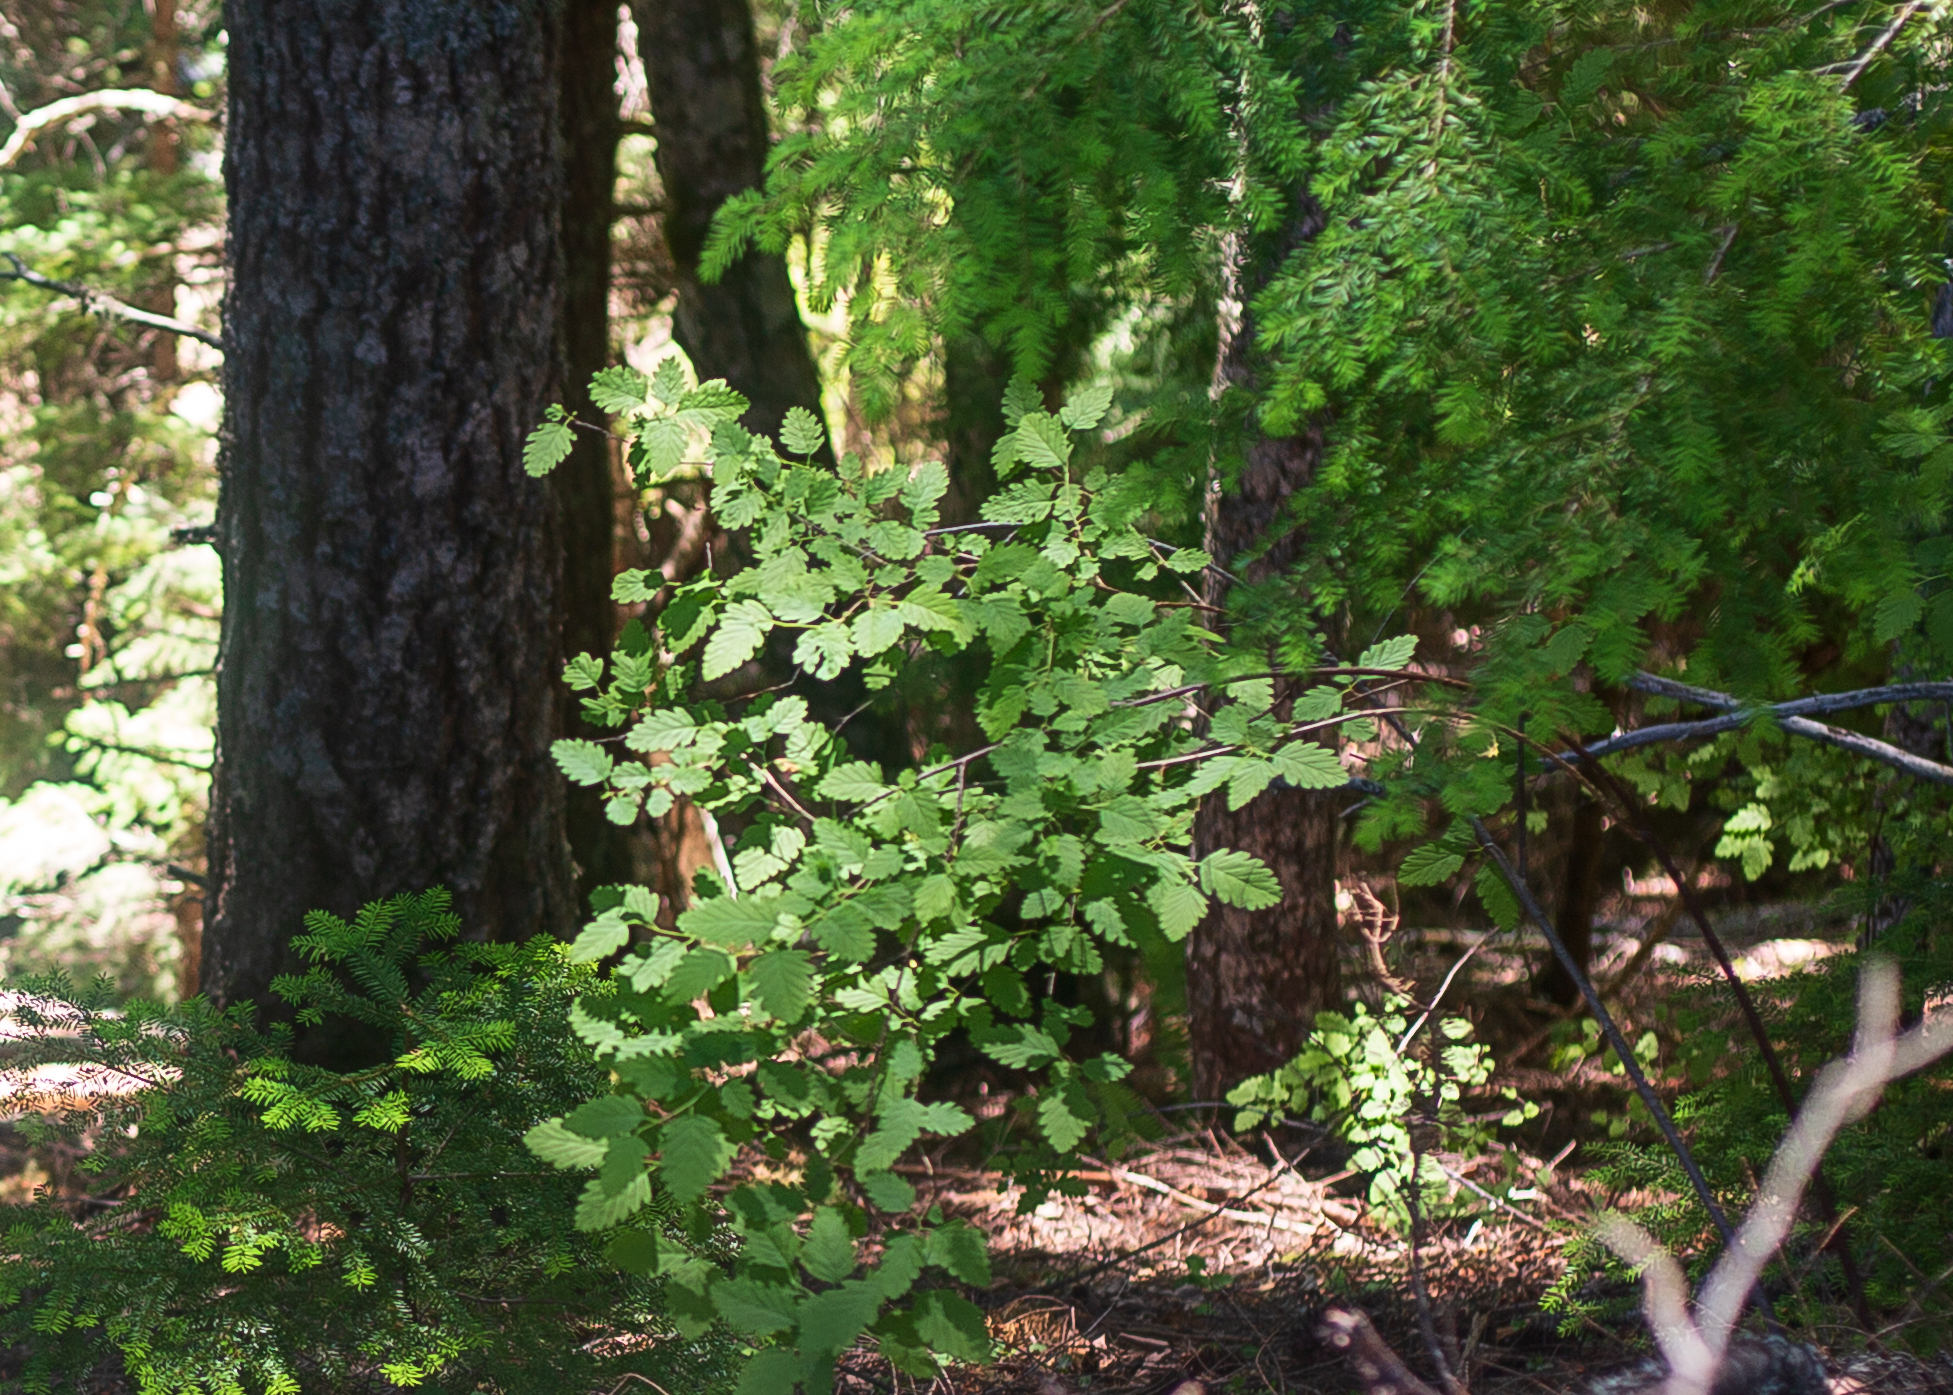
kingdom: Plantae
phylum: Tracheophyta
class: Magnoliopsida
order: Rosales
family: Rosaceae
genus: Holodiscus
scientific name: Holodiscus discolor
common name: Oceanspray
